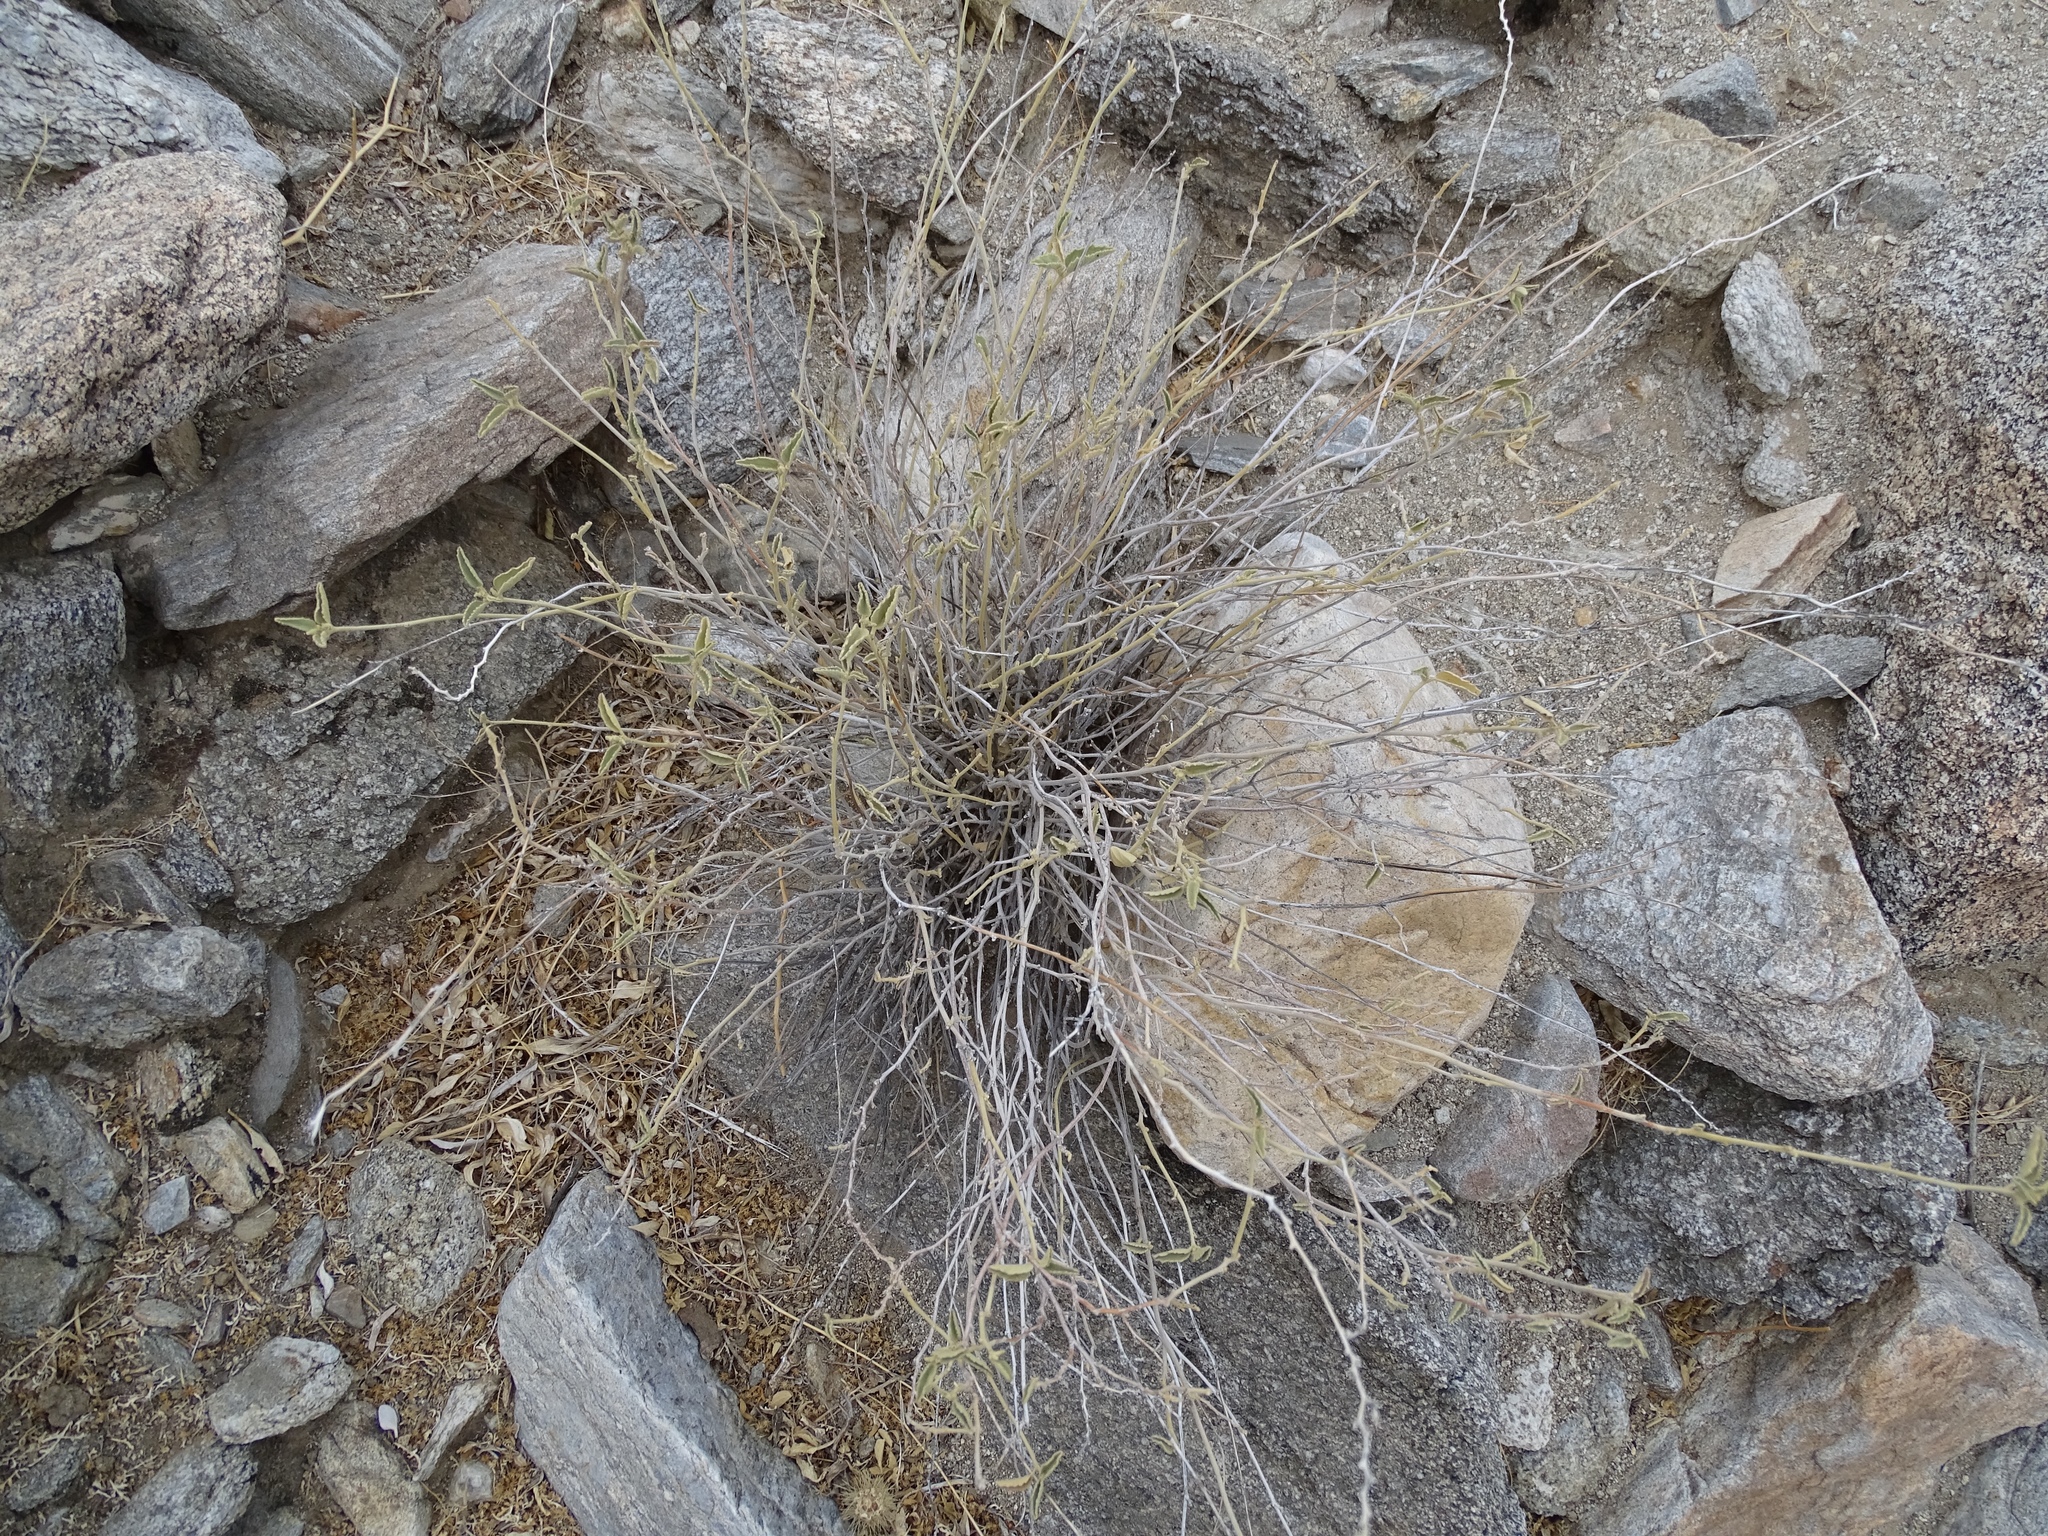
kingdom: Plantae
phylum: Tracheophyta
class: Magnoliopsida
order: Malvales
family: Malvaceae
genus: Hibiscus
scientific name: Hibiscus denudatus
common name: Paleface
